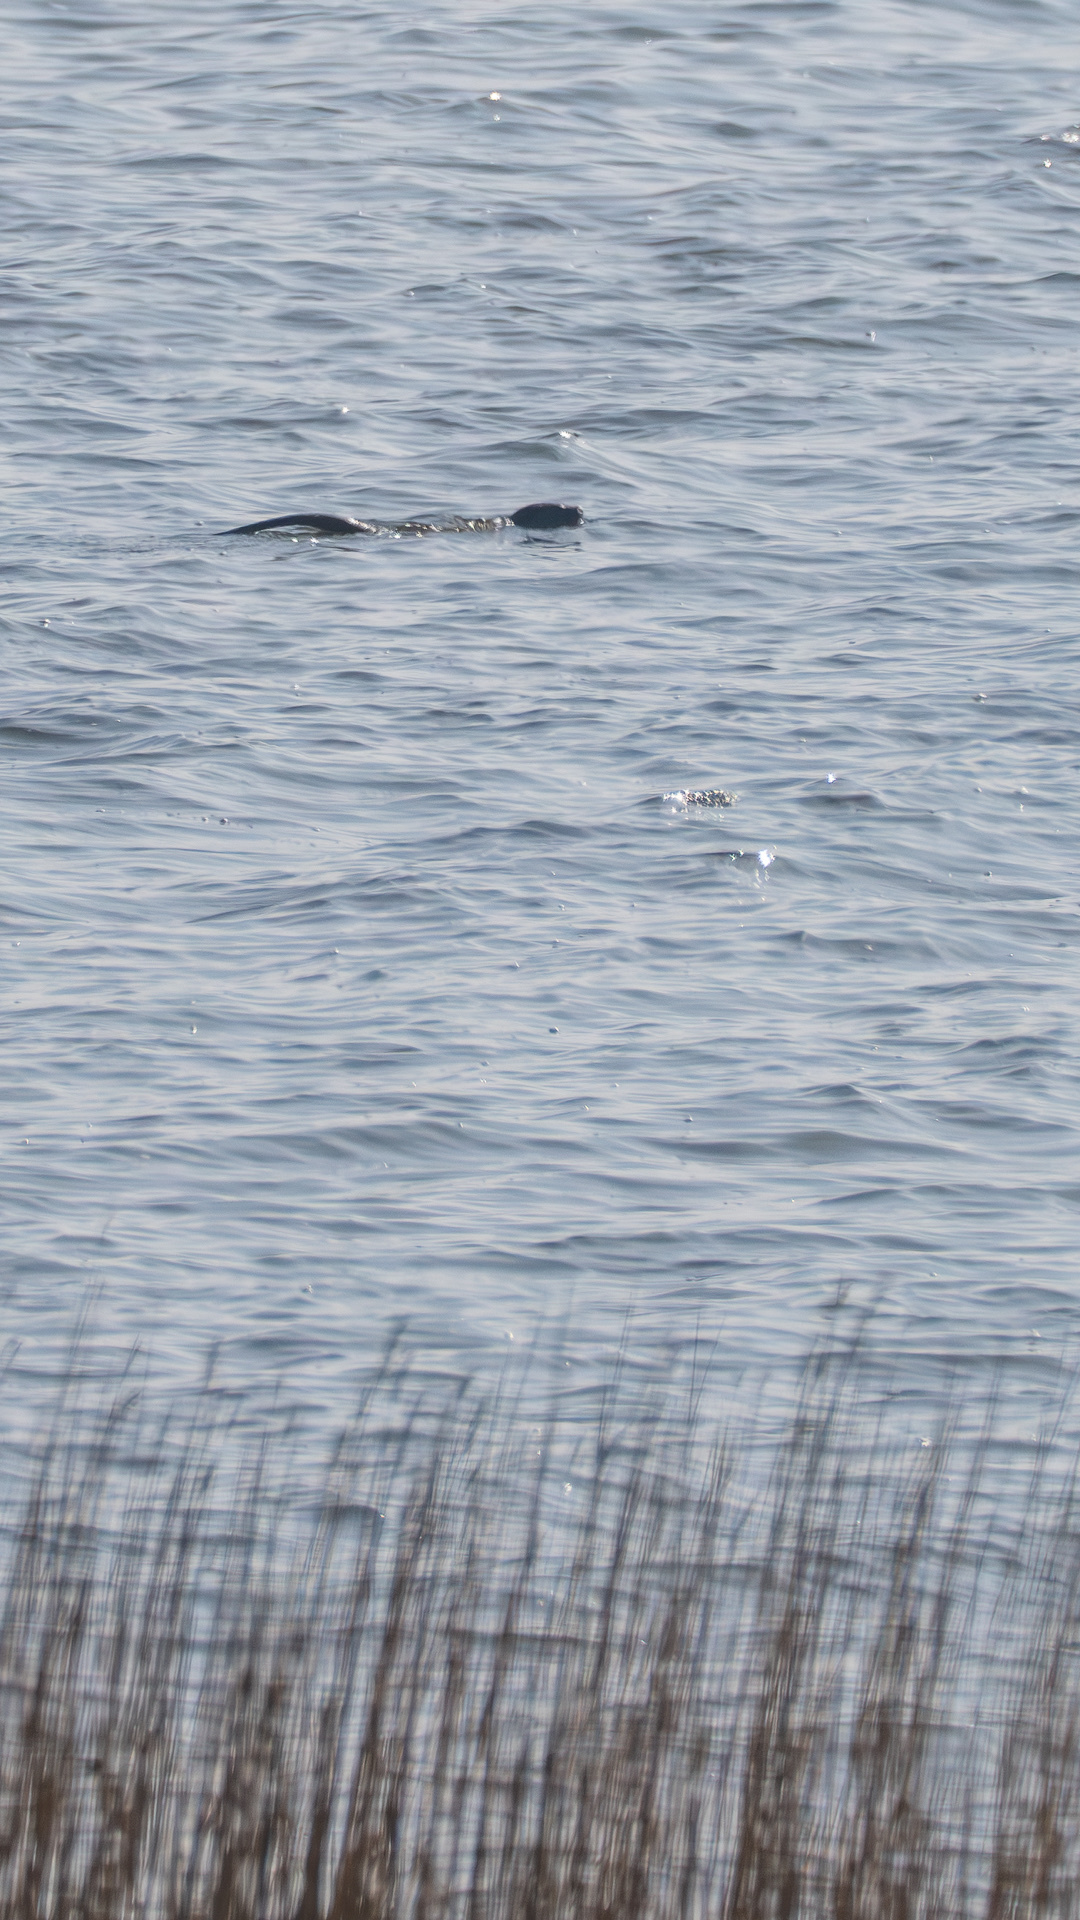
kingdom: Animalia
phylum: Chordata
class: Mammalia
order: Carnivora
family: Mustelidae
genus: Lutra
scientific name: Lutra lutra
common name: European otter
